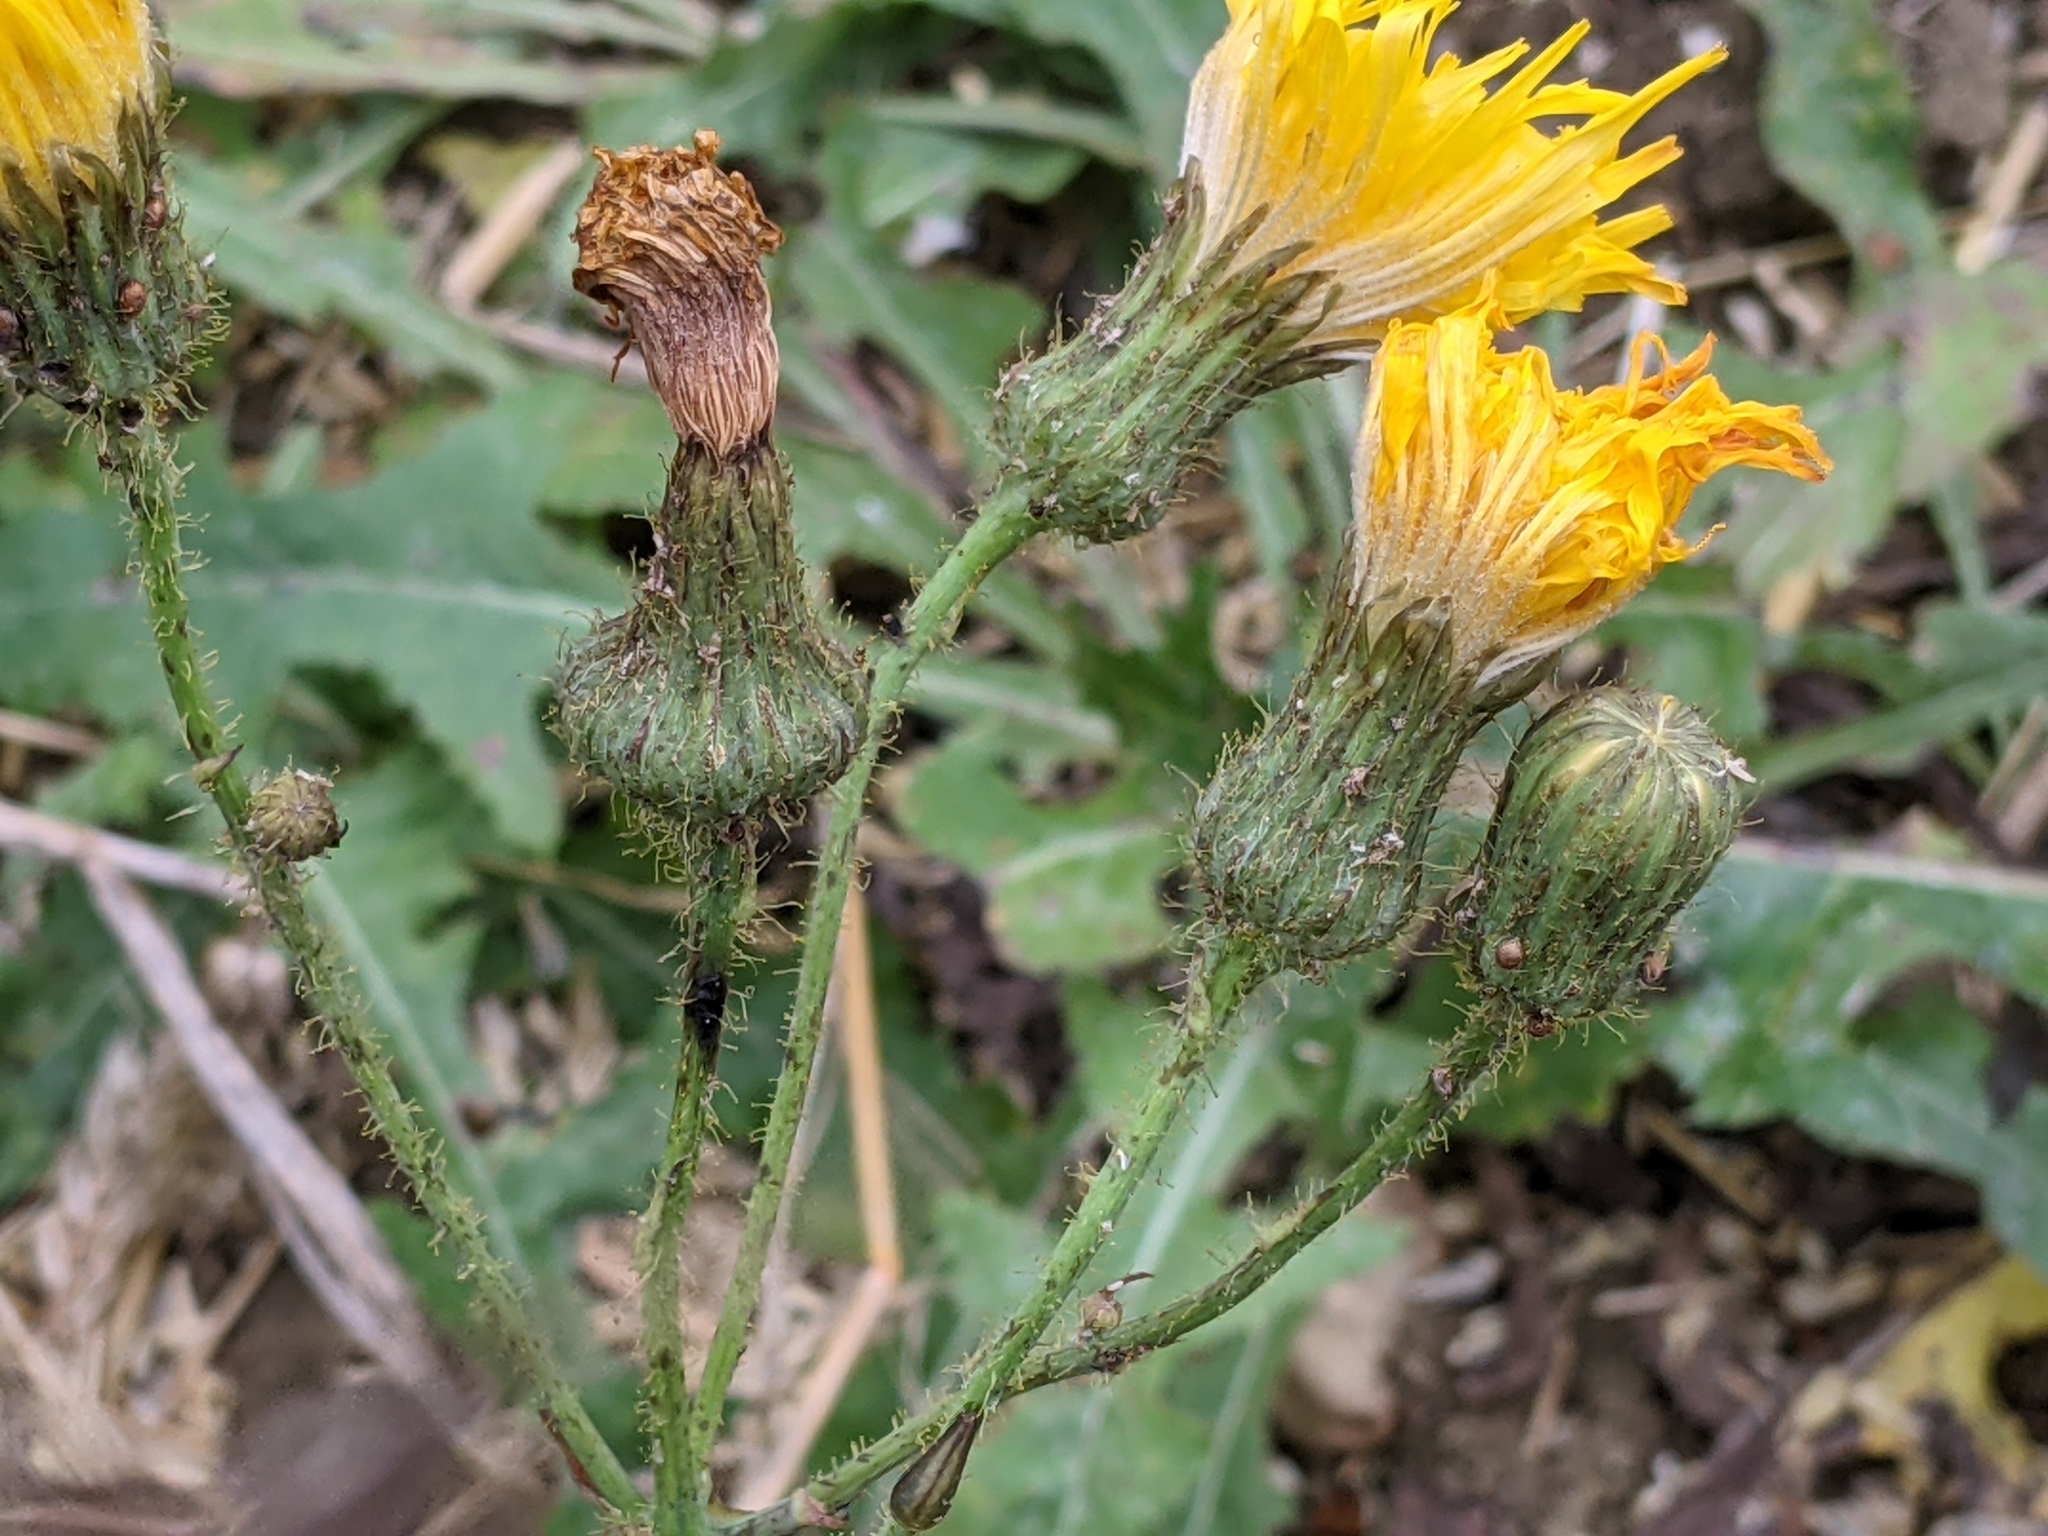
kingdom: Plantae
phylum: Tracheophyta
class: Magnoliopsida
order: Asterales
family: Asteraceae
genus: Sonchus
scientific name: Sonchus arvensis
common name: Perennial sow-thistle
